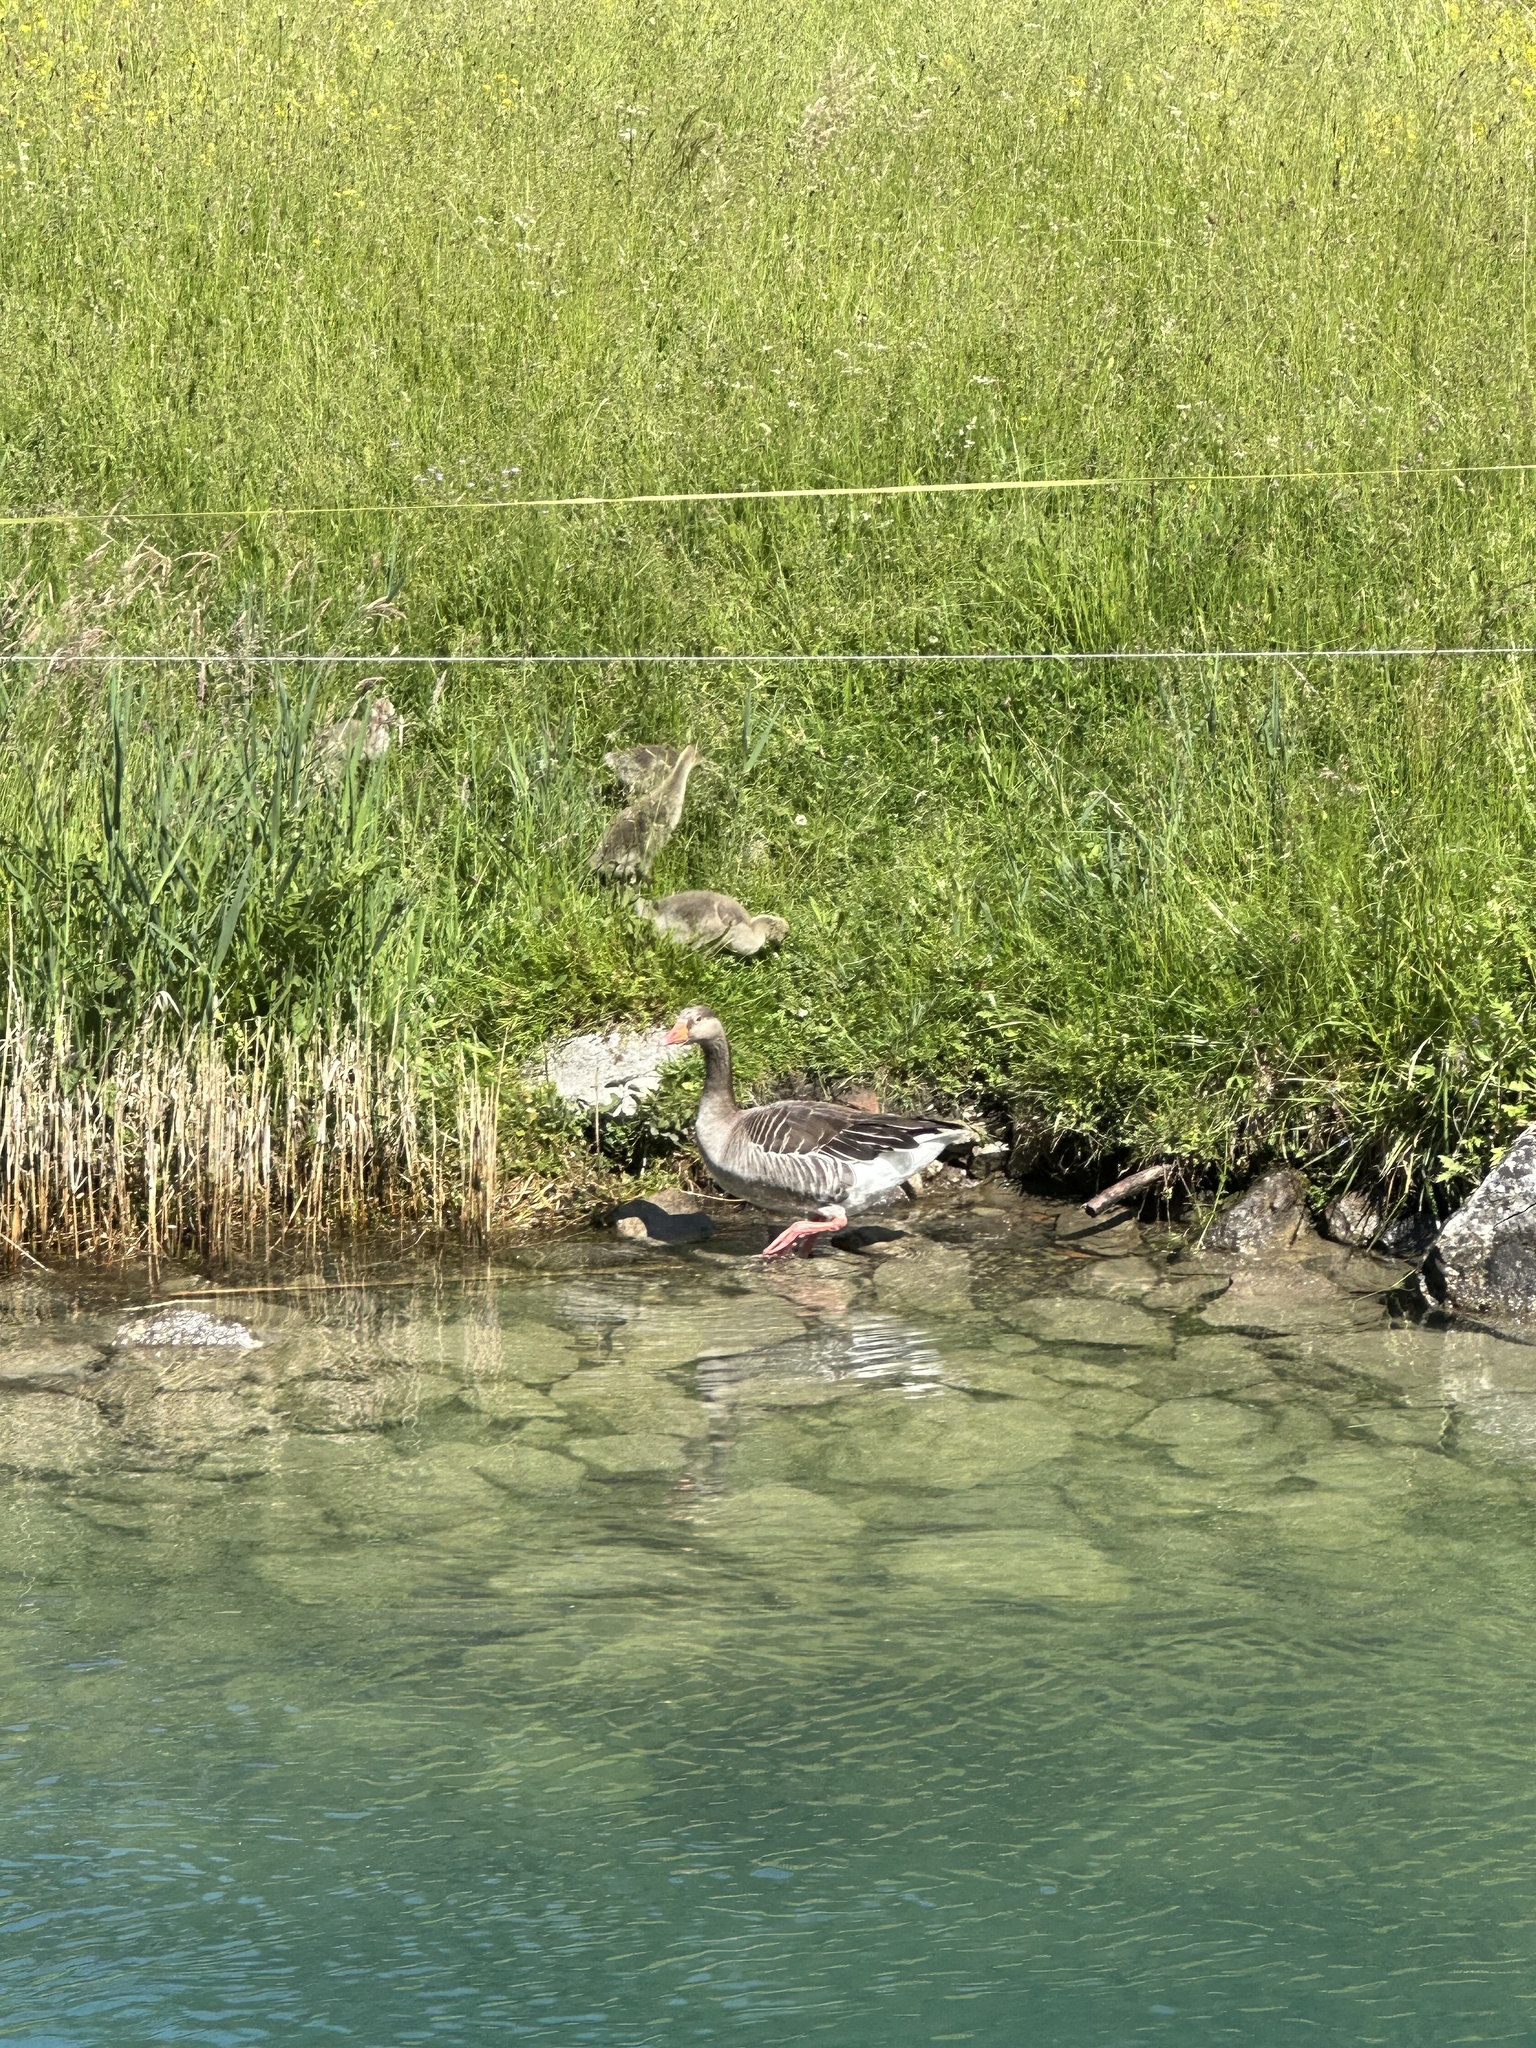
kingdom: Animalia
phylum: Chordata
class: Aves
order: Anseriformes
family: Anatidae
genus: Anser
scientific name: Anser anser
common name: Greylag goose
